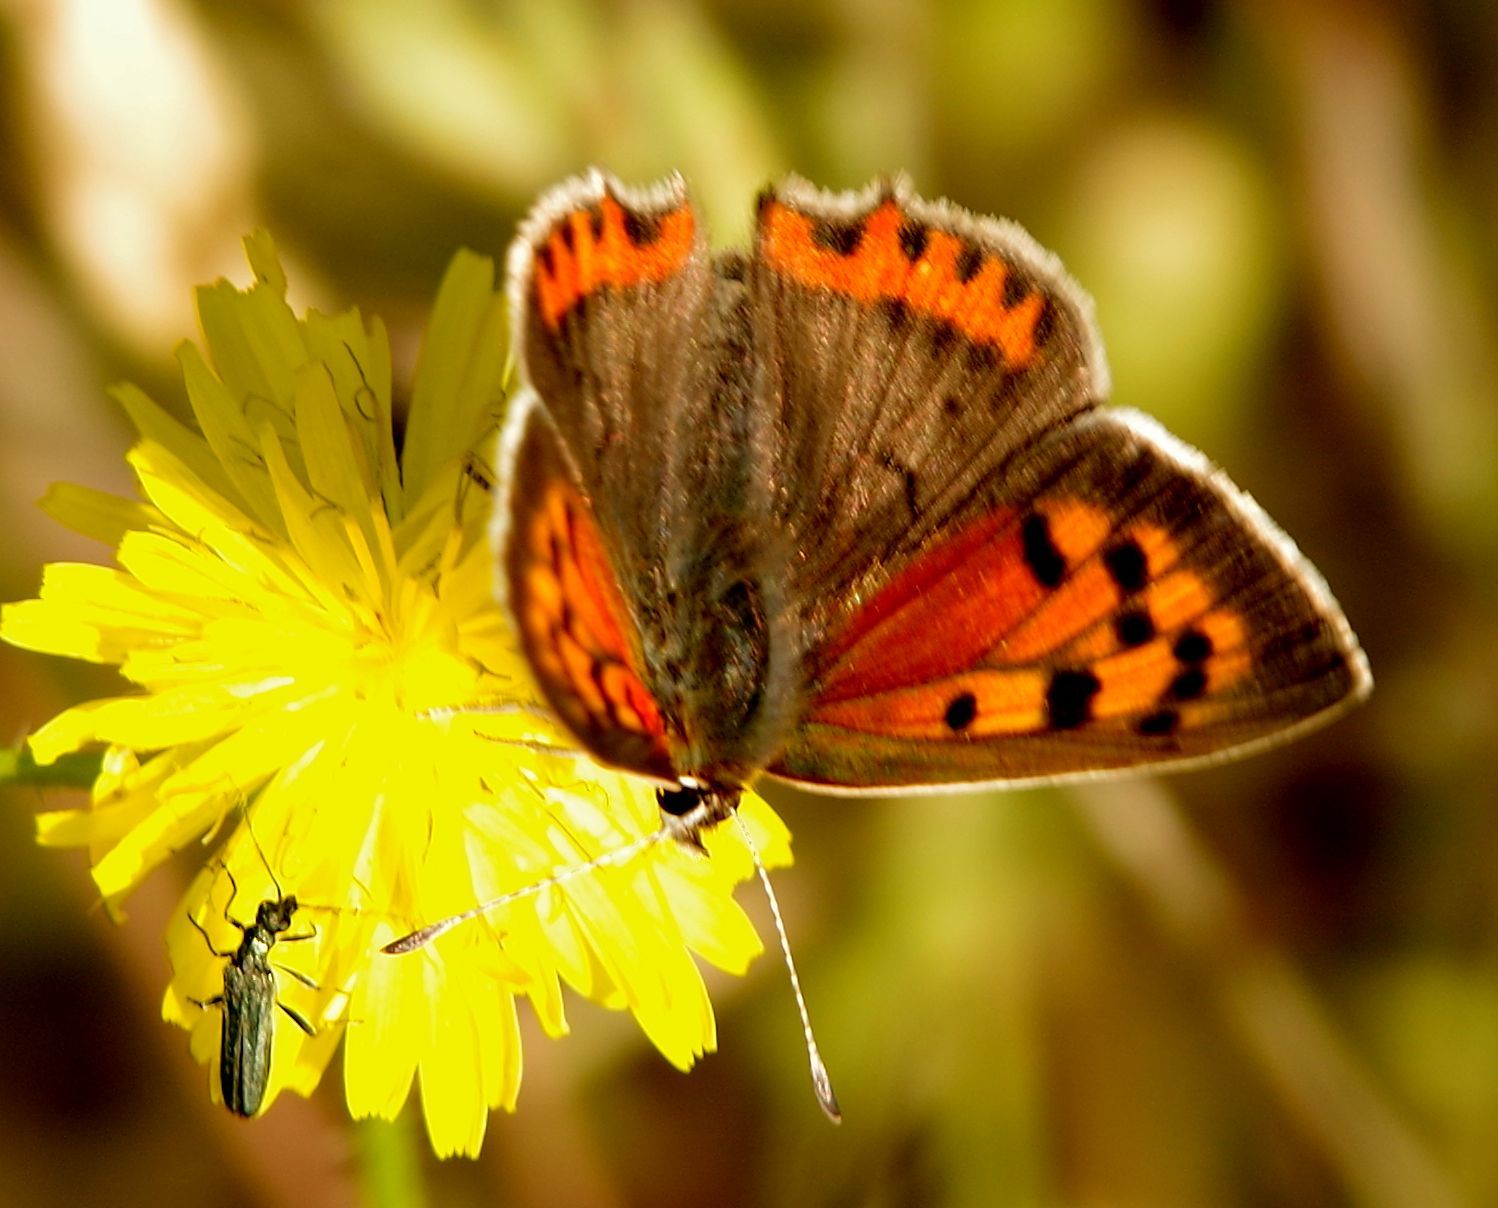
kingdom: Animalia
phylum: Arthropoda
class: Insecta
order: Lepidoptera
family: Lycaenidae
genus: Lycaena
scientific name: Lycaena phlaeas
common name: Small copper
